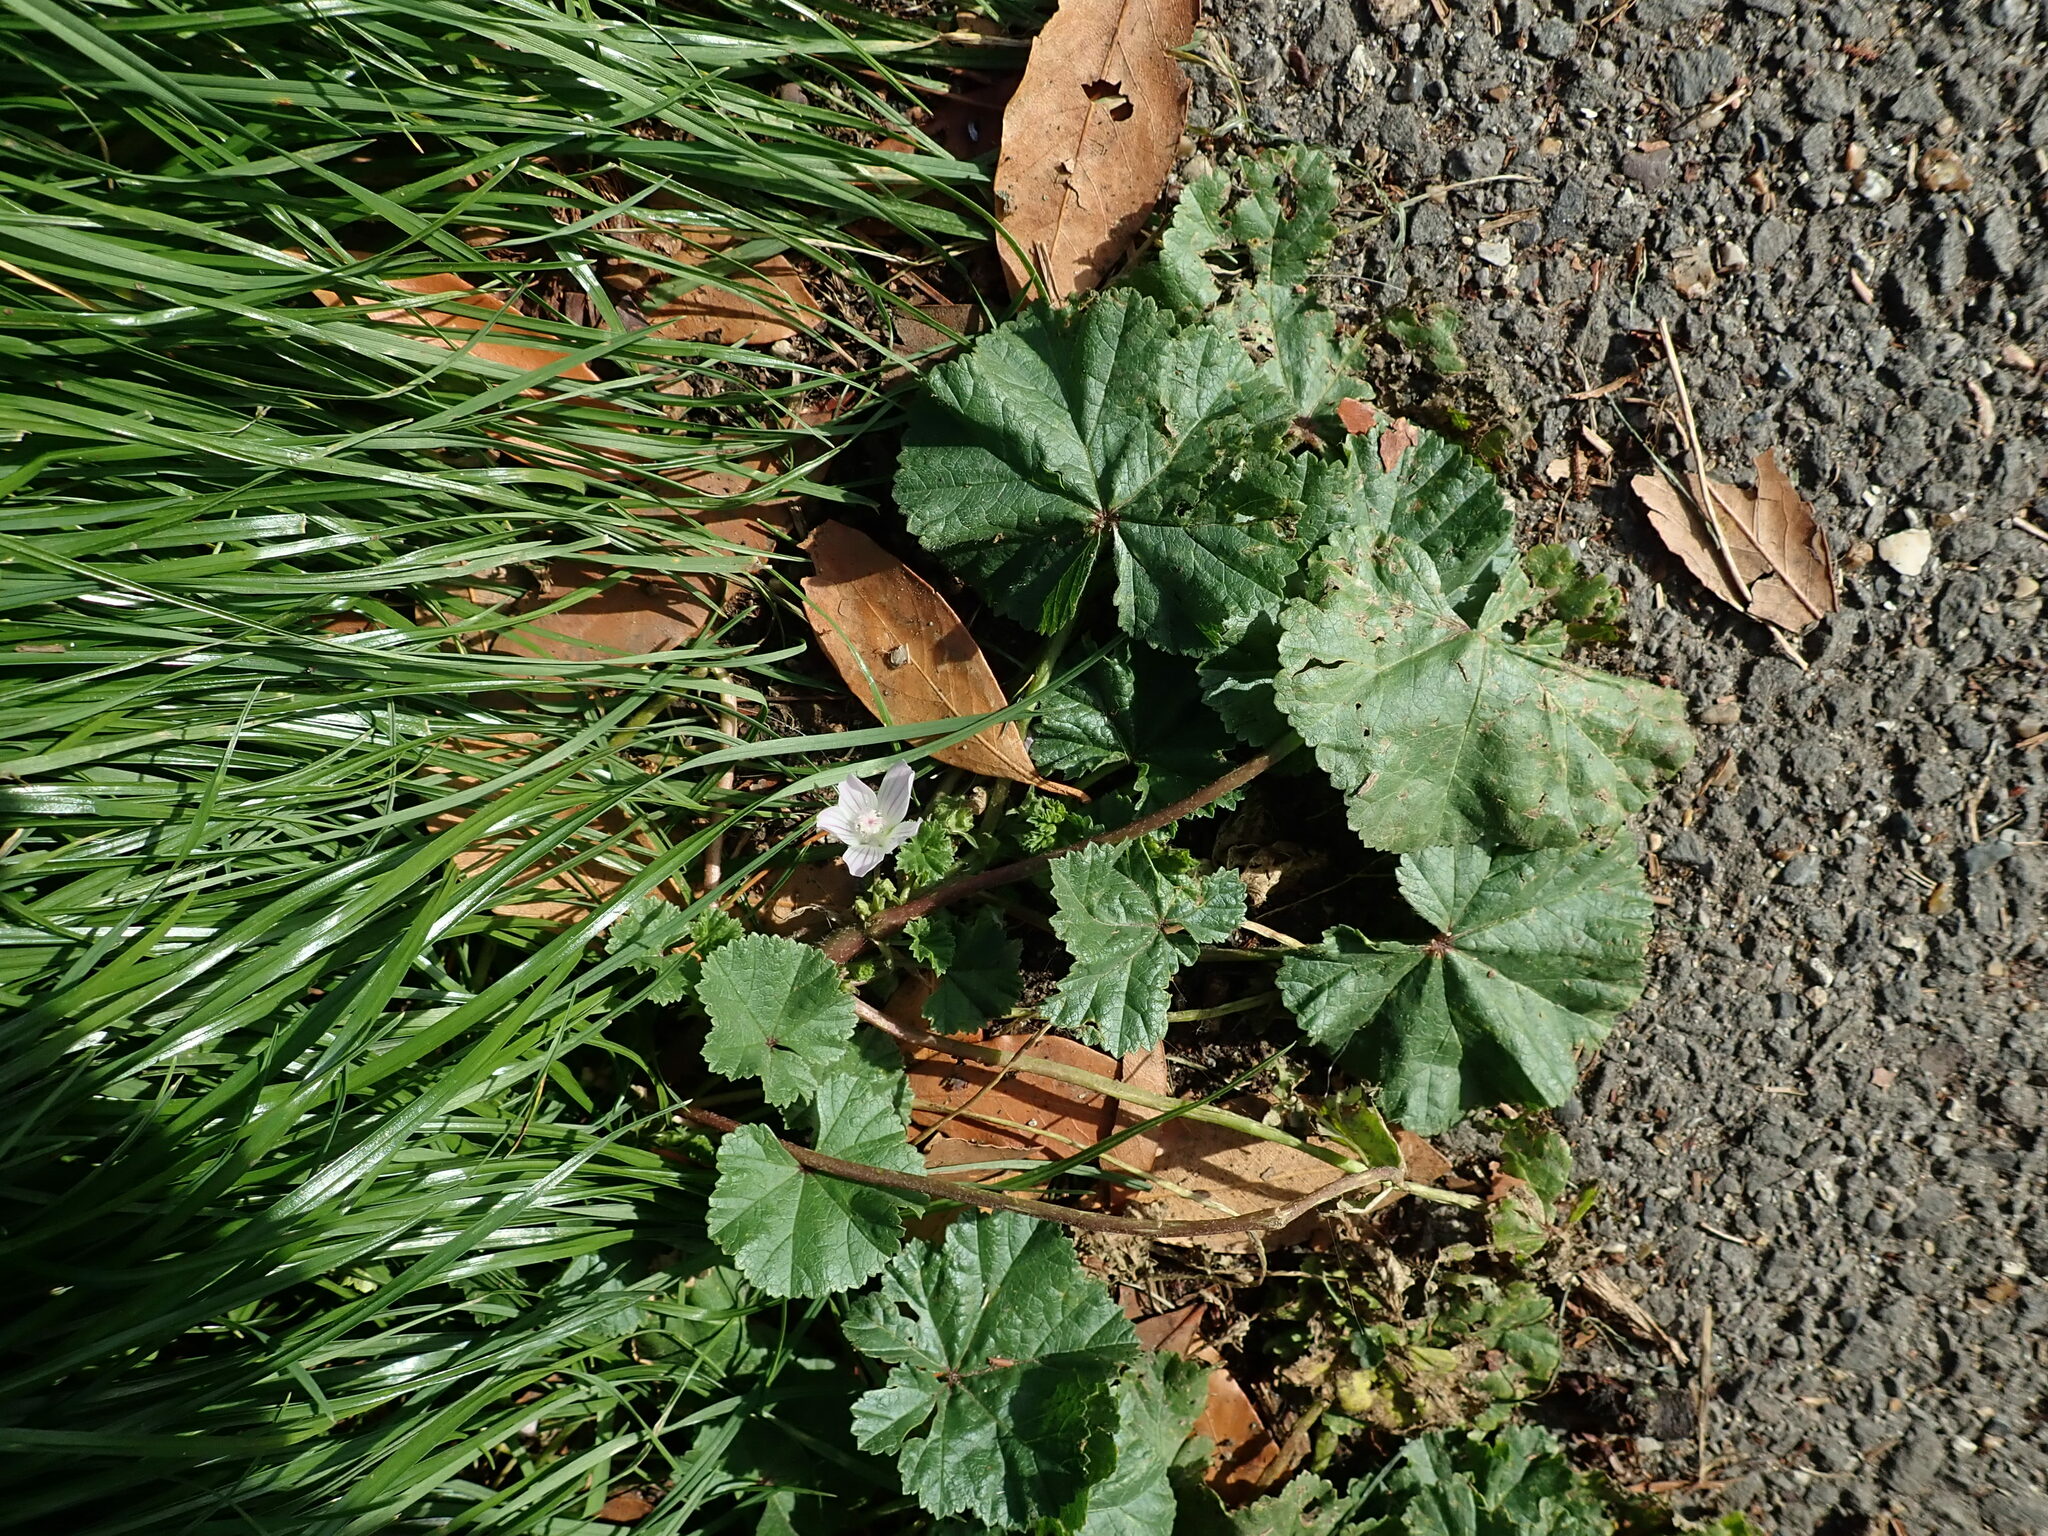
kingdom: Plantae
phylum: Tracheophyta
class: Magnoliopsida
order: Malvales
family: Malvaceae
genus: Malva
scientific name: Malva neglecta
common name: Common mallow
